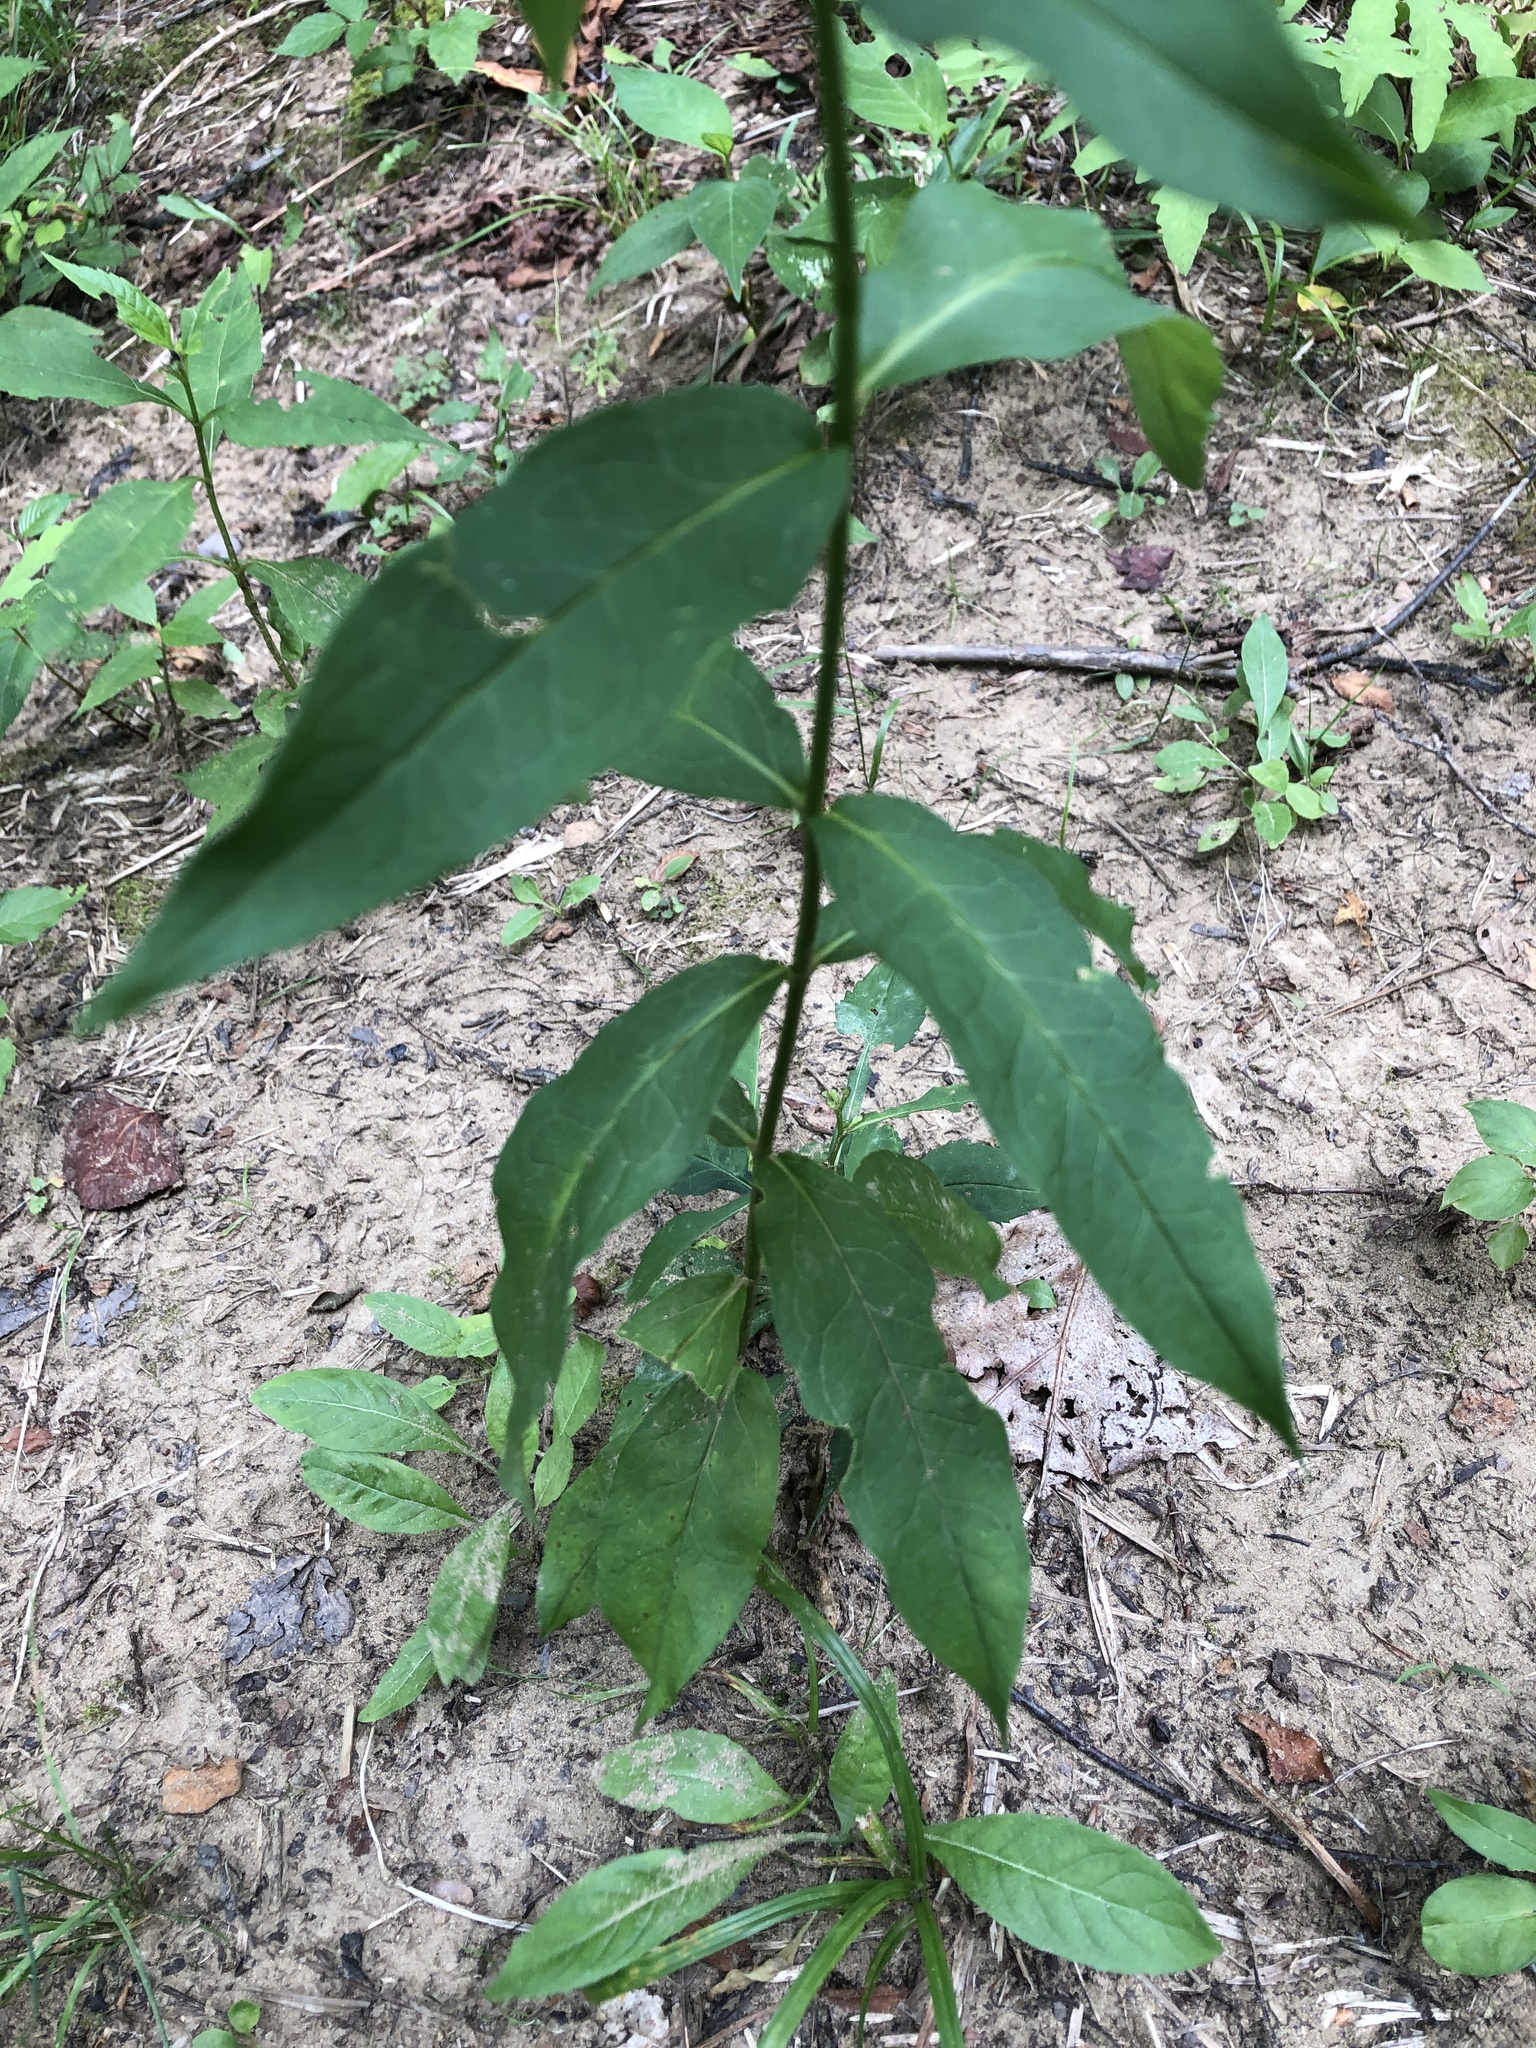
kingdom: Plantae
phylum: Tracheophyta
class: Magnoliopsida
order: Ericales
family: Polemoniaceae
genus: Phlox
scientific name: Phlox paniculata
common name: Fall phlox
